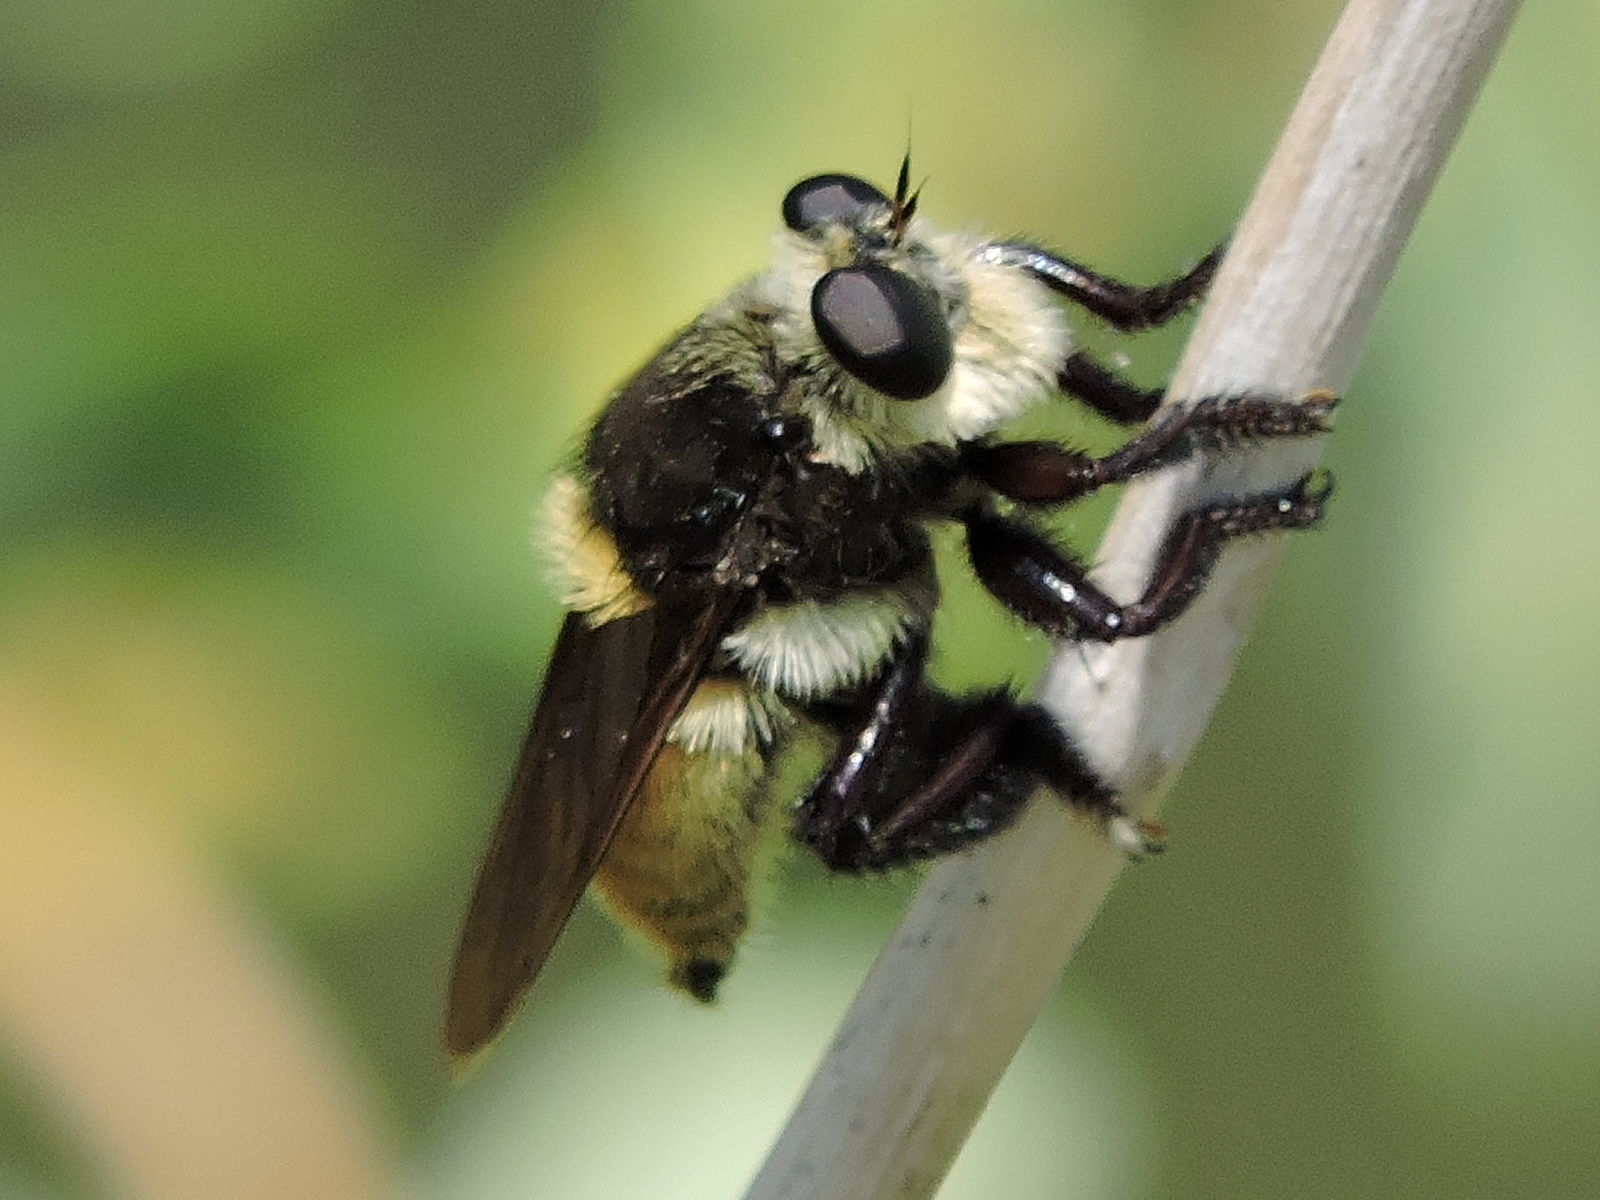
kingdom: Animalia
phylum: Arthropoda
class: Insecta
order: Diptera
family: Asilidae
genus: Mallophora
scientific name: Mallophora fautrix
